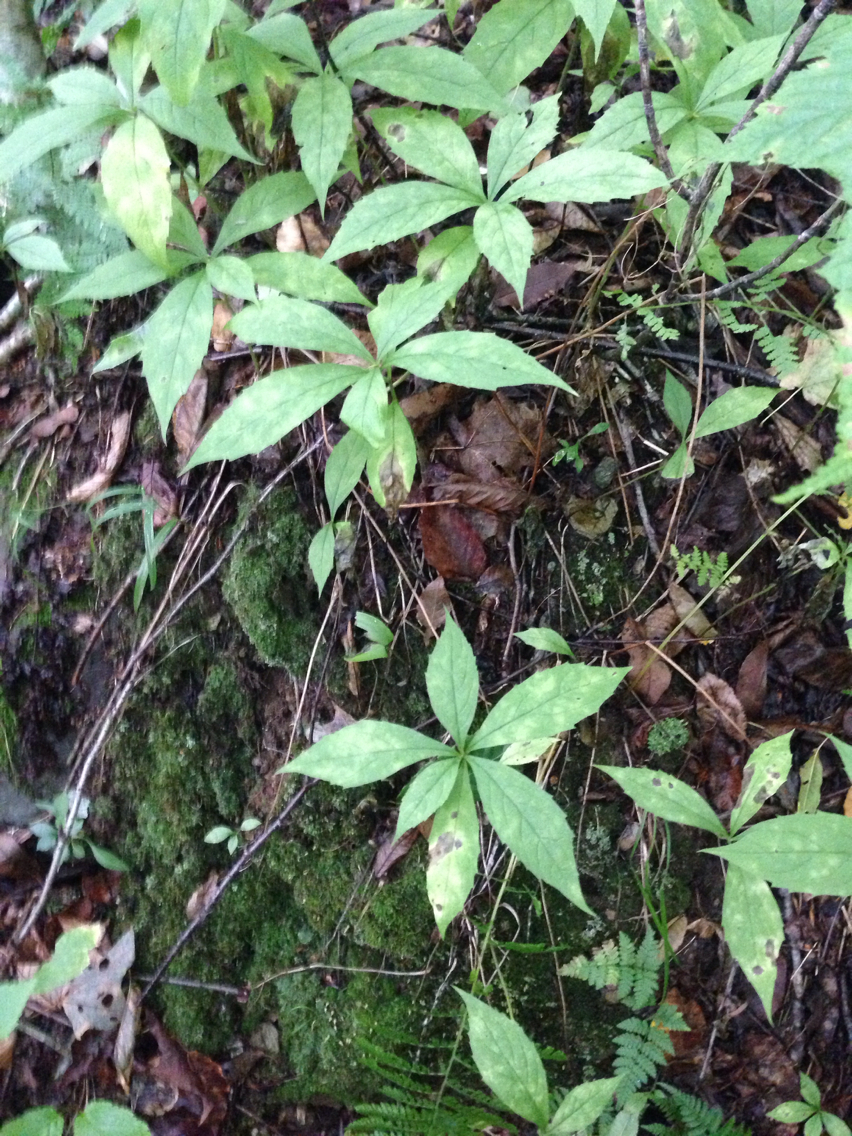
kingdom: Plantae
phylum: Tracheophyta
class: Magnoliopsida
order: Asterales
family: Asteraceae
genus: Oclemena
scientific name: Oclemena acuminata
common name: Mountain aster
